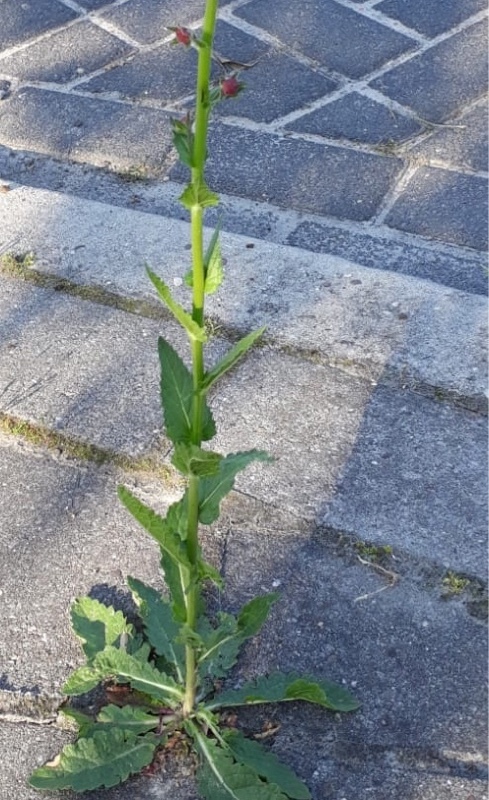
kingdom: Plantae
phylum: Tracheophyta
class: Magnoliopsida
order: Lamiales
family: Scrophulariaceae
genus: Verbascum
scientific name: Verbascum blattaria
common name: Moth mullein
